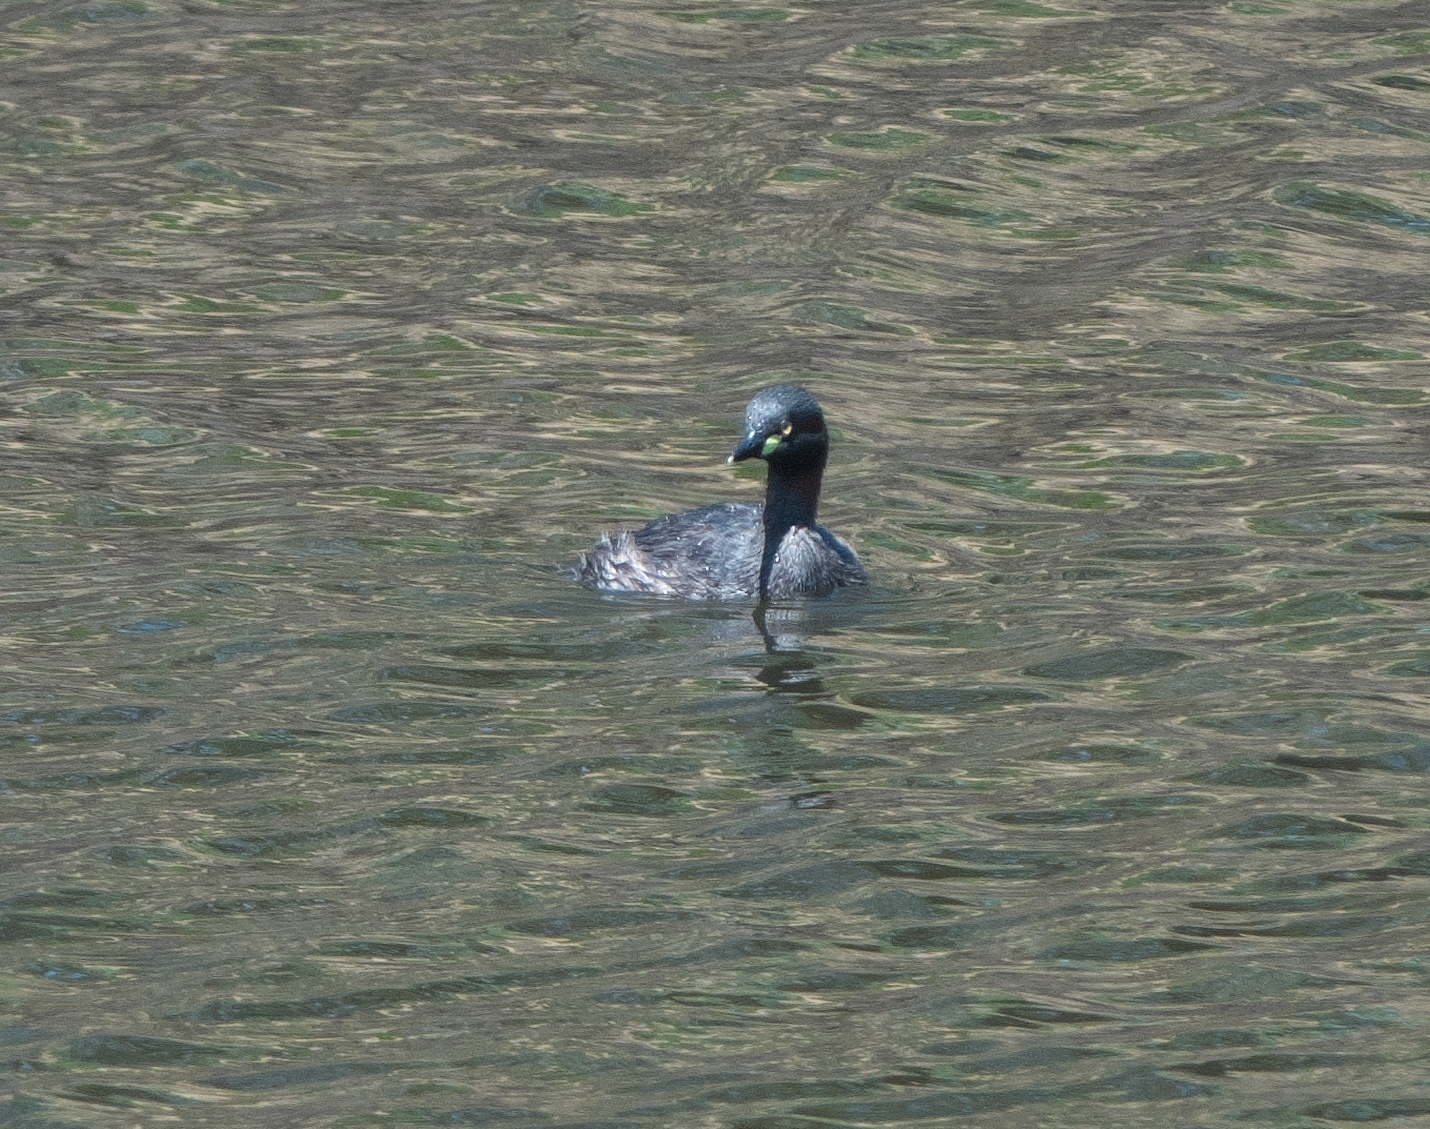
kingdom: Animalia
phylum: Chordata
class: Aves
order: Podicipediformes
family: Podicipedidae
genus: Tachybaptus
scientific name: Tachybaptus novaehollandiae
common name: Australasian grebe
